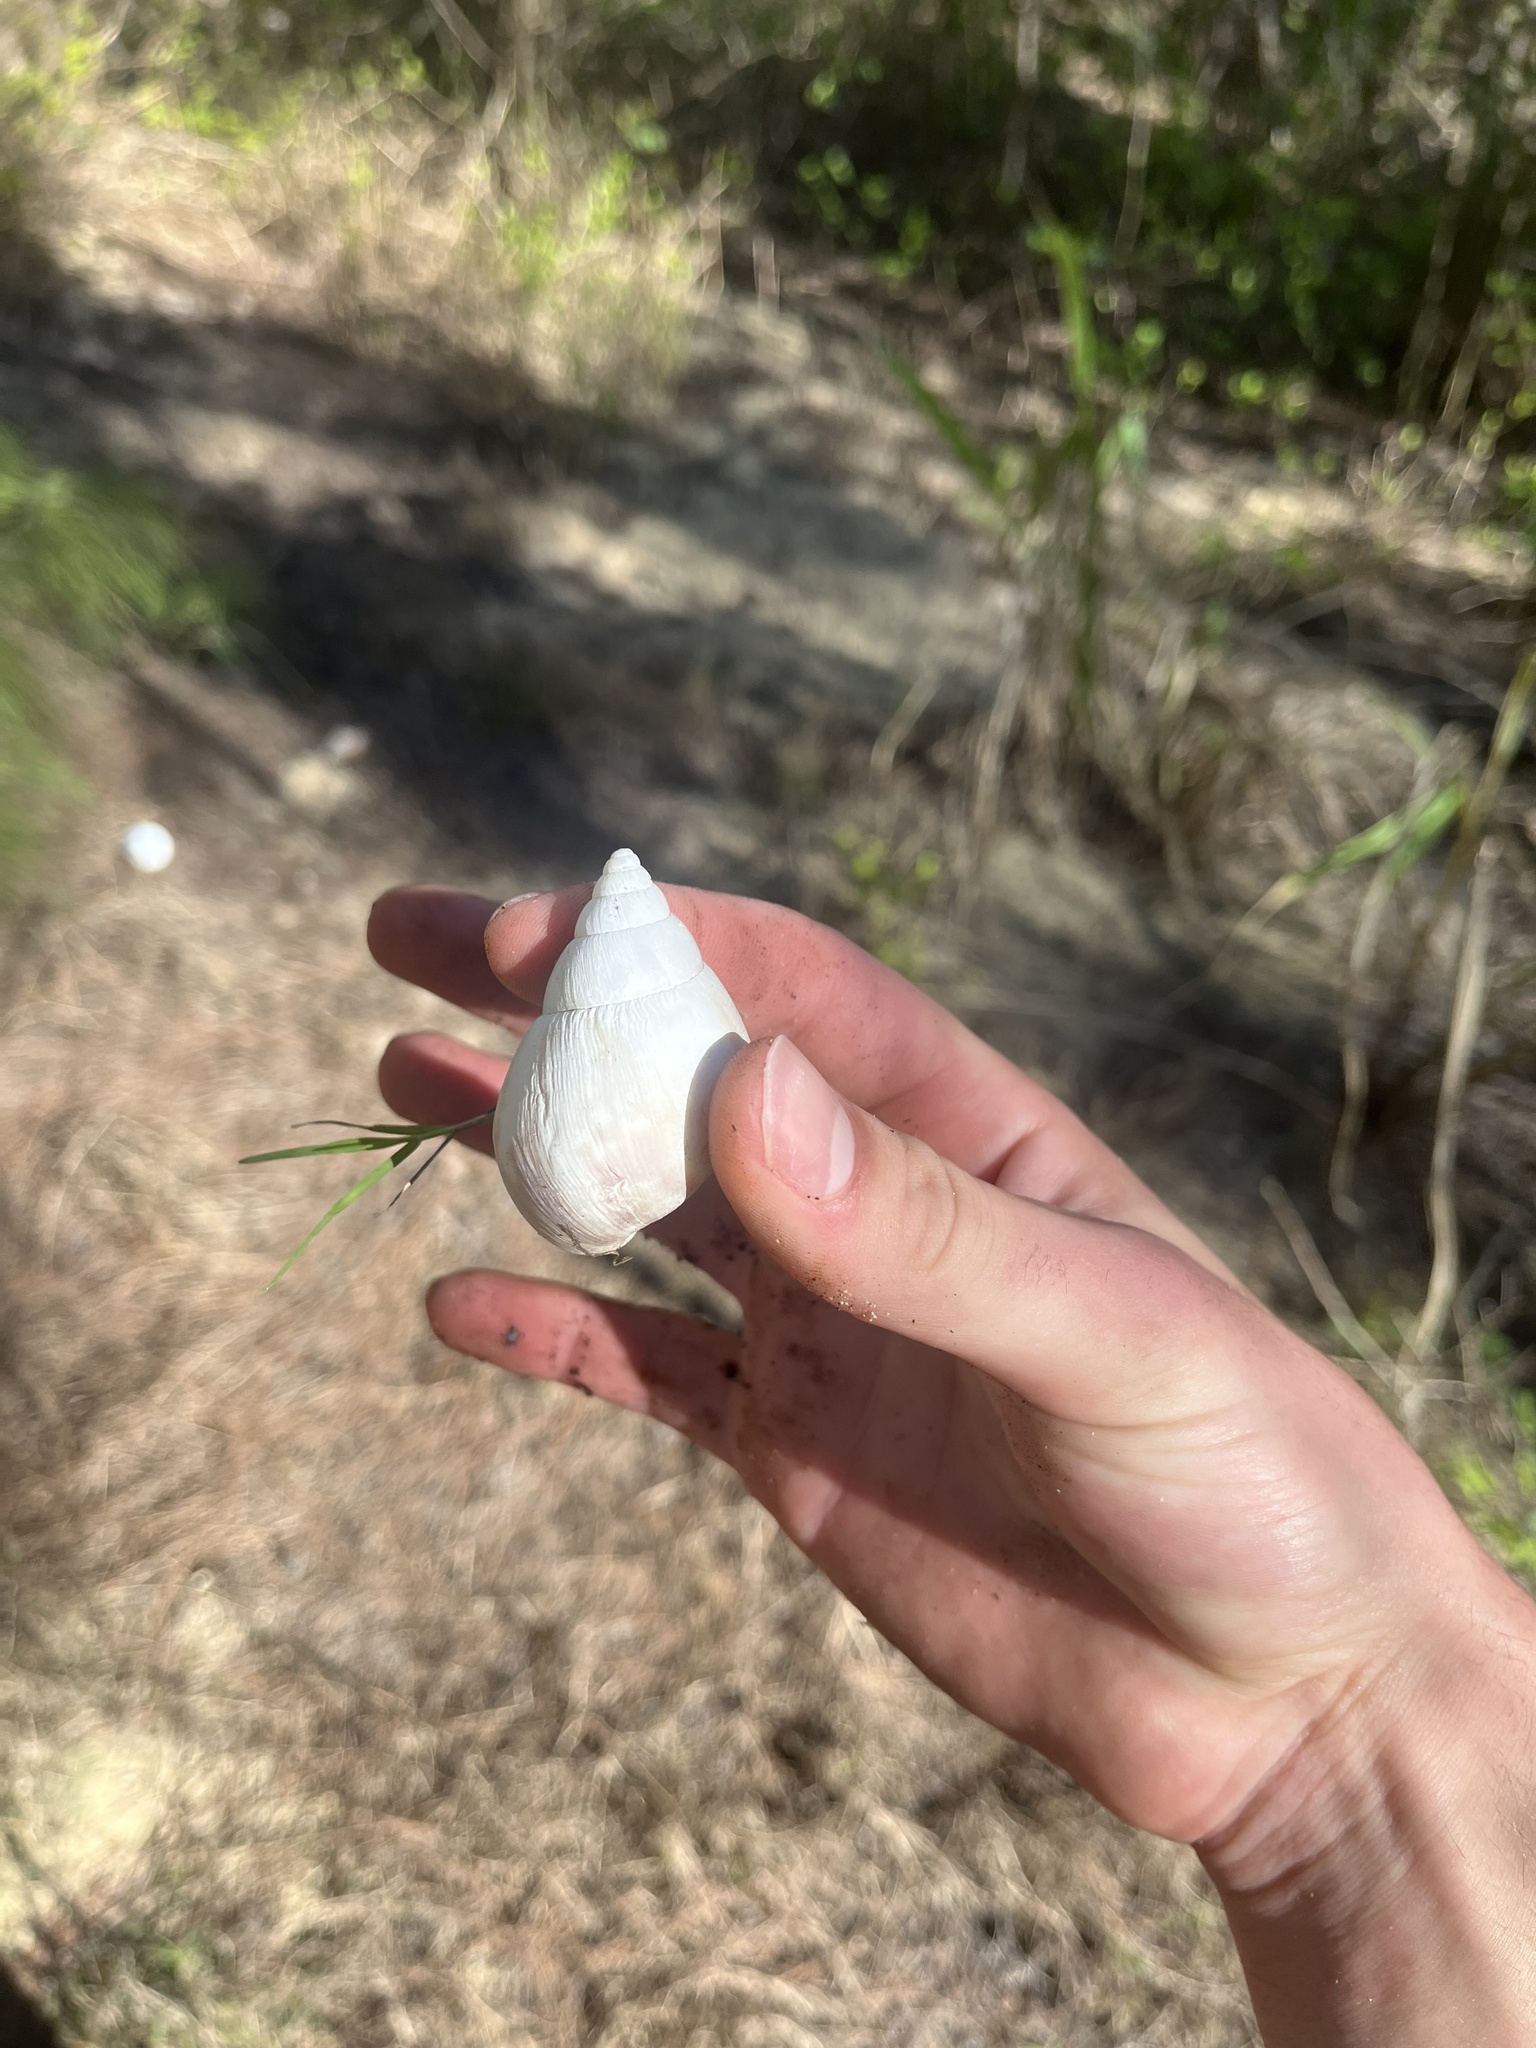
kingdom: Animalia
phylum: Mollusca
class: Gastropoda
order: Stylommatophora
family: Achatinidae
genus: Lissachatina
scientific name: Lissachatina fulica
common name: Giant african snail
